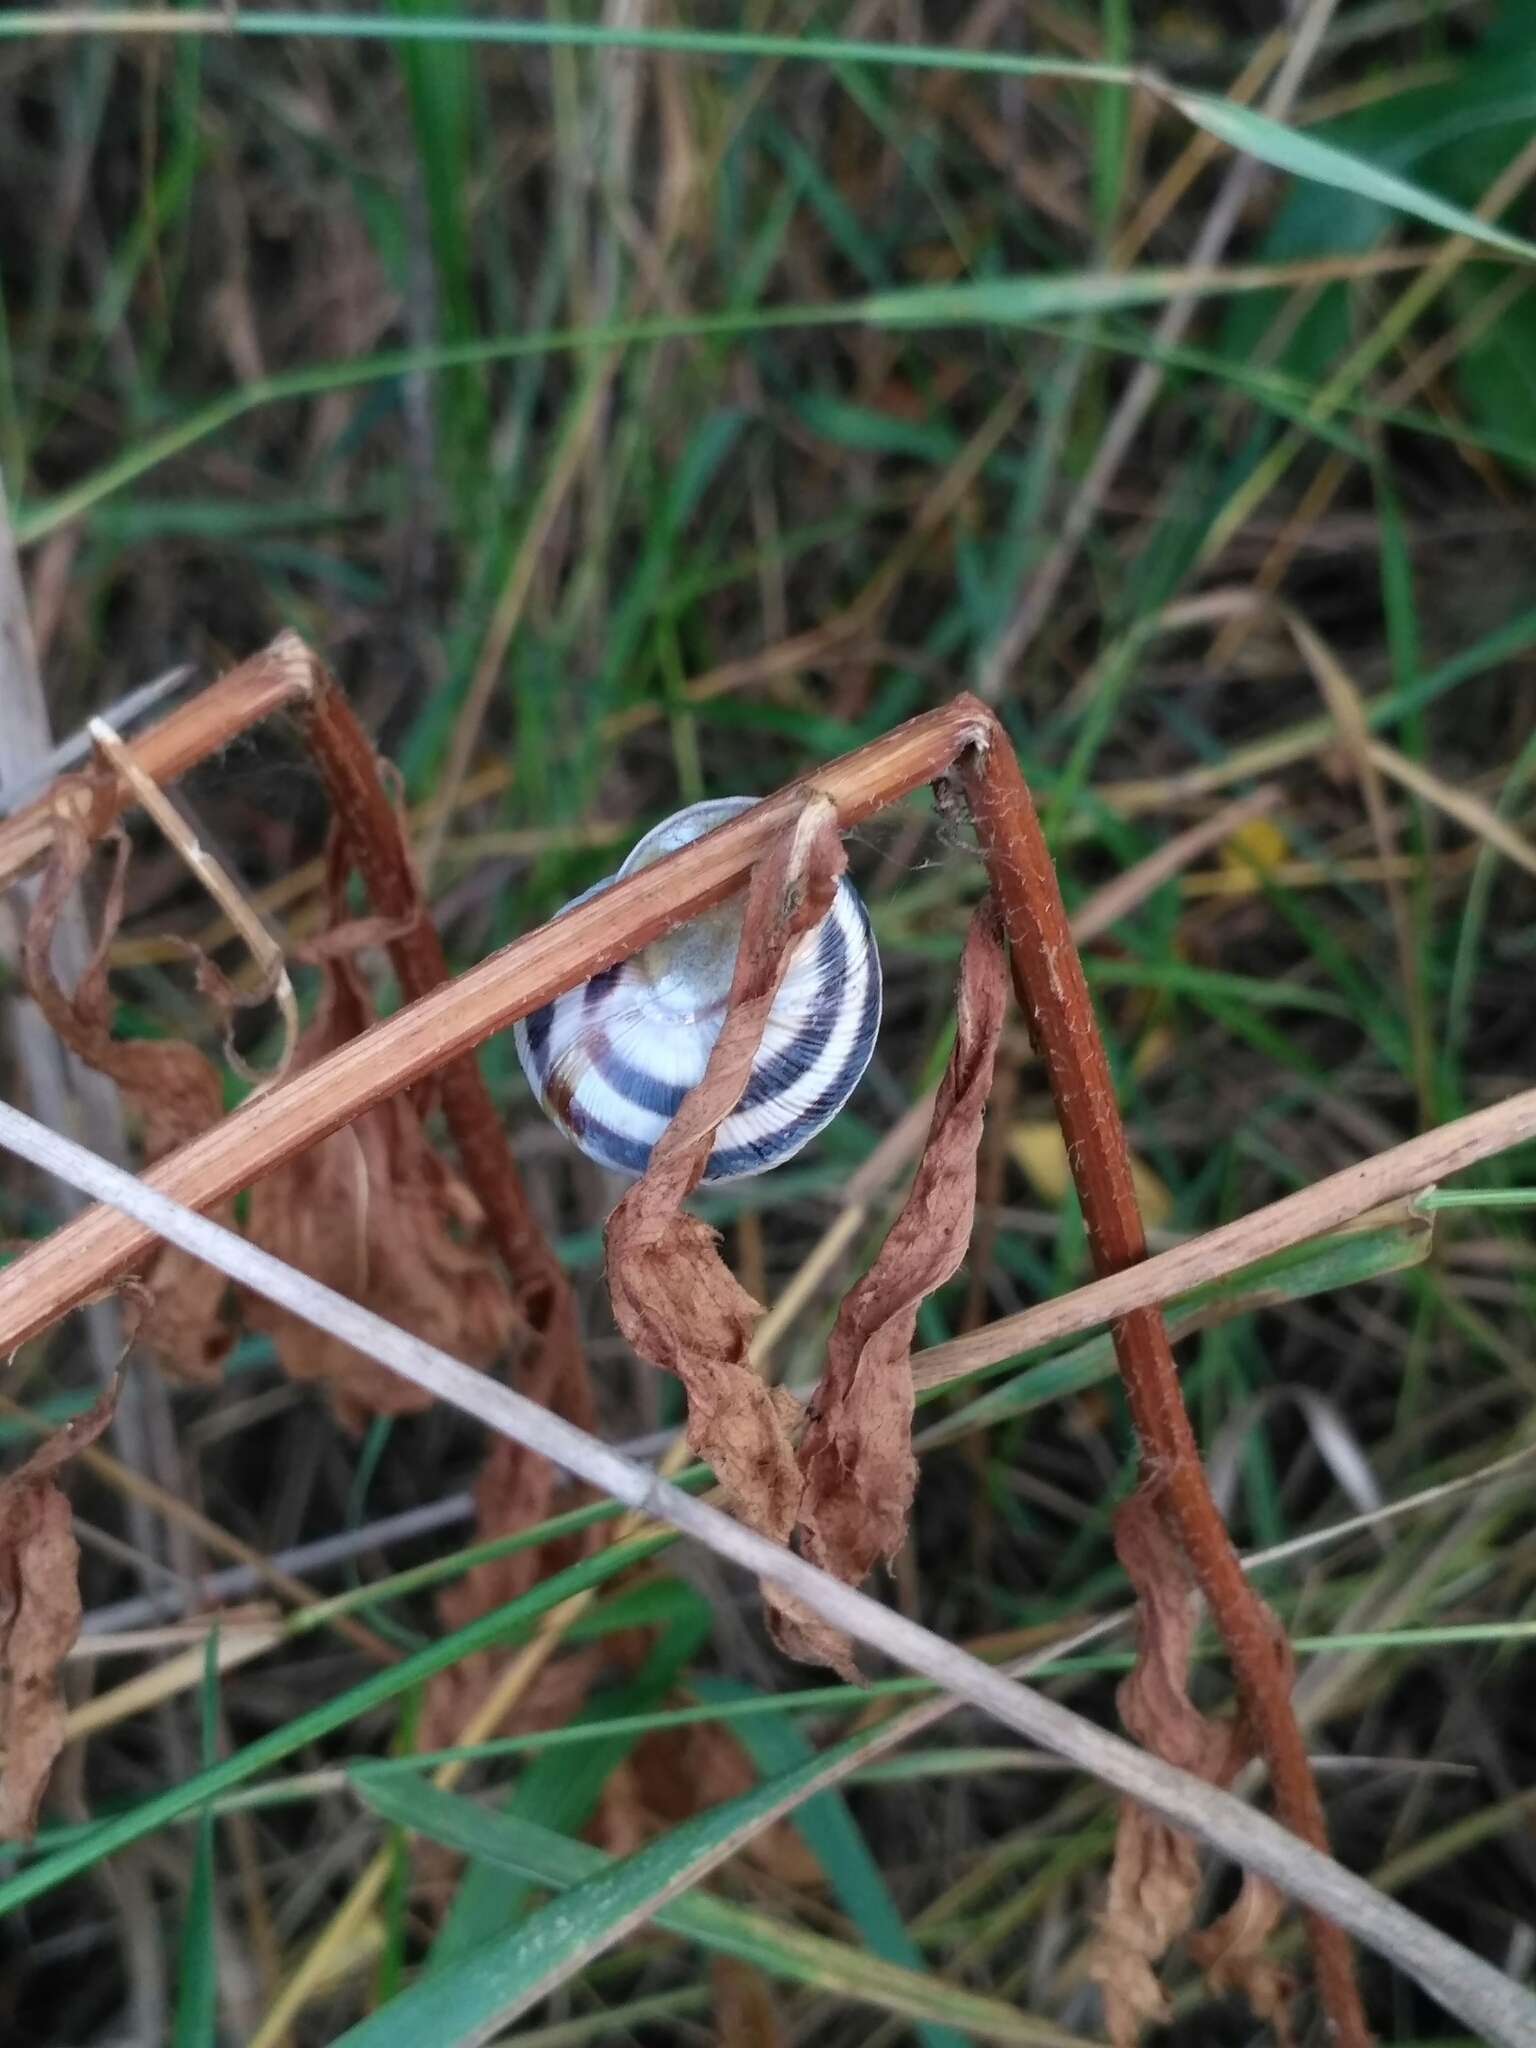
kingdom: Animalia
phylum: Mollusca
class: Gastropoda
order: Stylommatophora
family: Helicidae
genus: Caucasotachea
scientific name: Caucasotachea vindobonensis
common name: European helicid land snail
